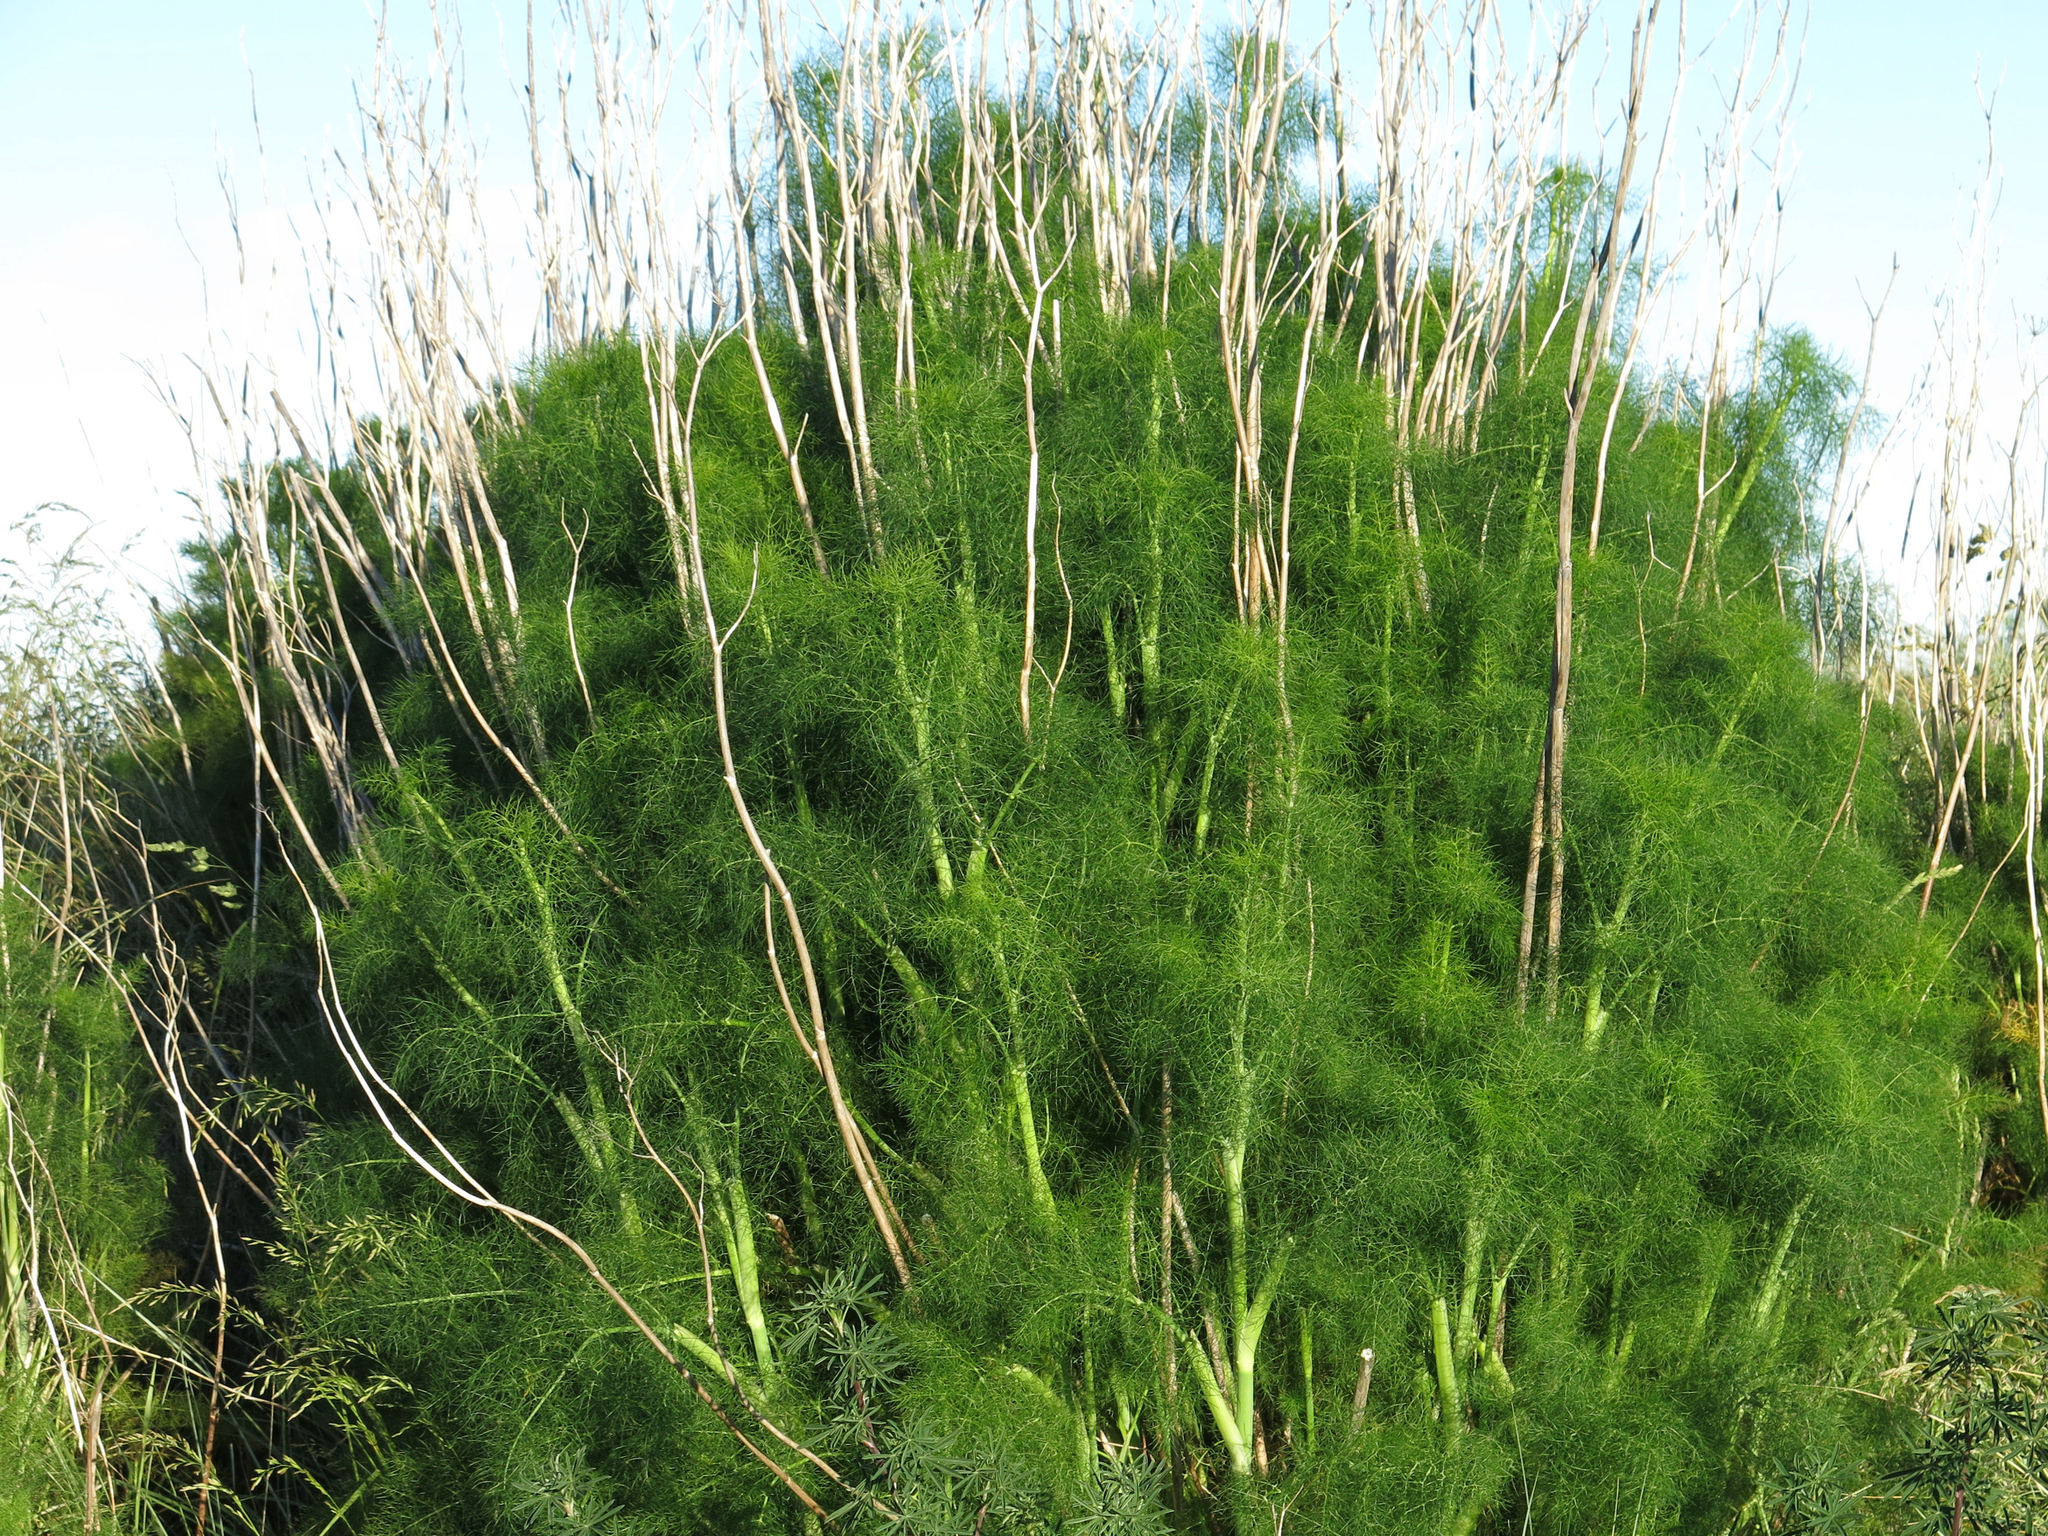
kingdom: Plantae
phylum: Tracheophyta
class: Magnoliopsida
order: Apiales
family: Apiaceae
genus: Foeniculum
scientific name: Foeniculum vulgare
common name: Fennel
